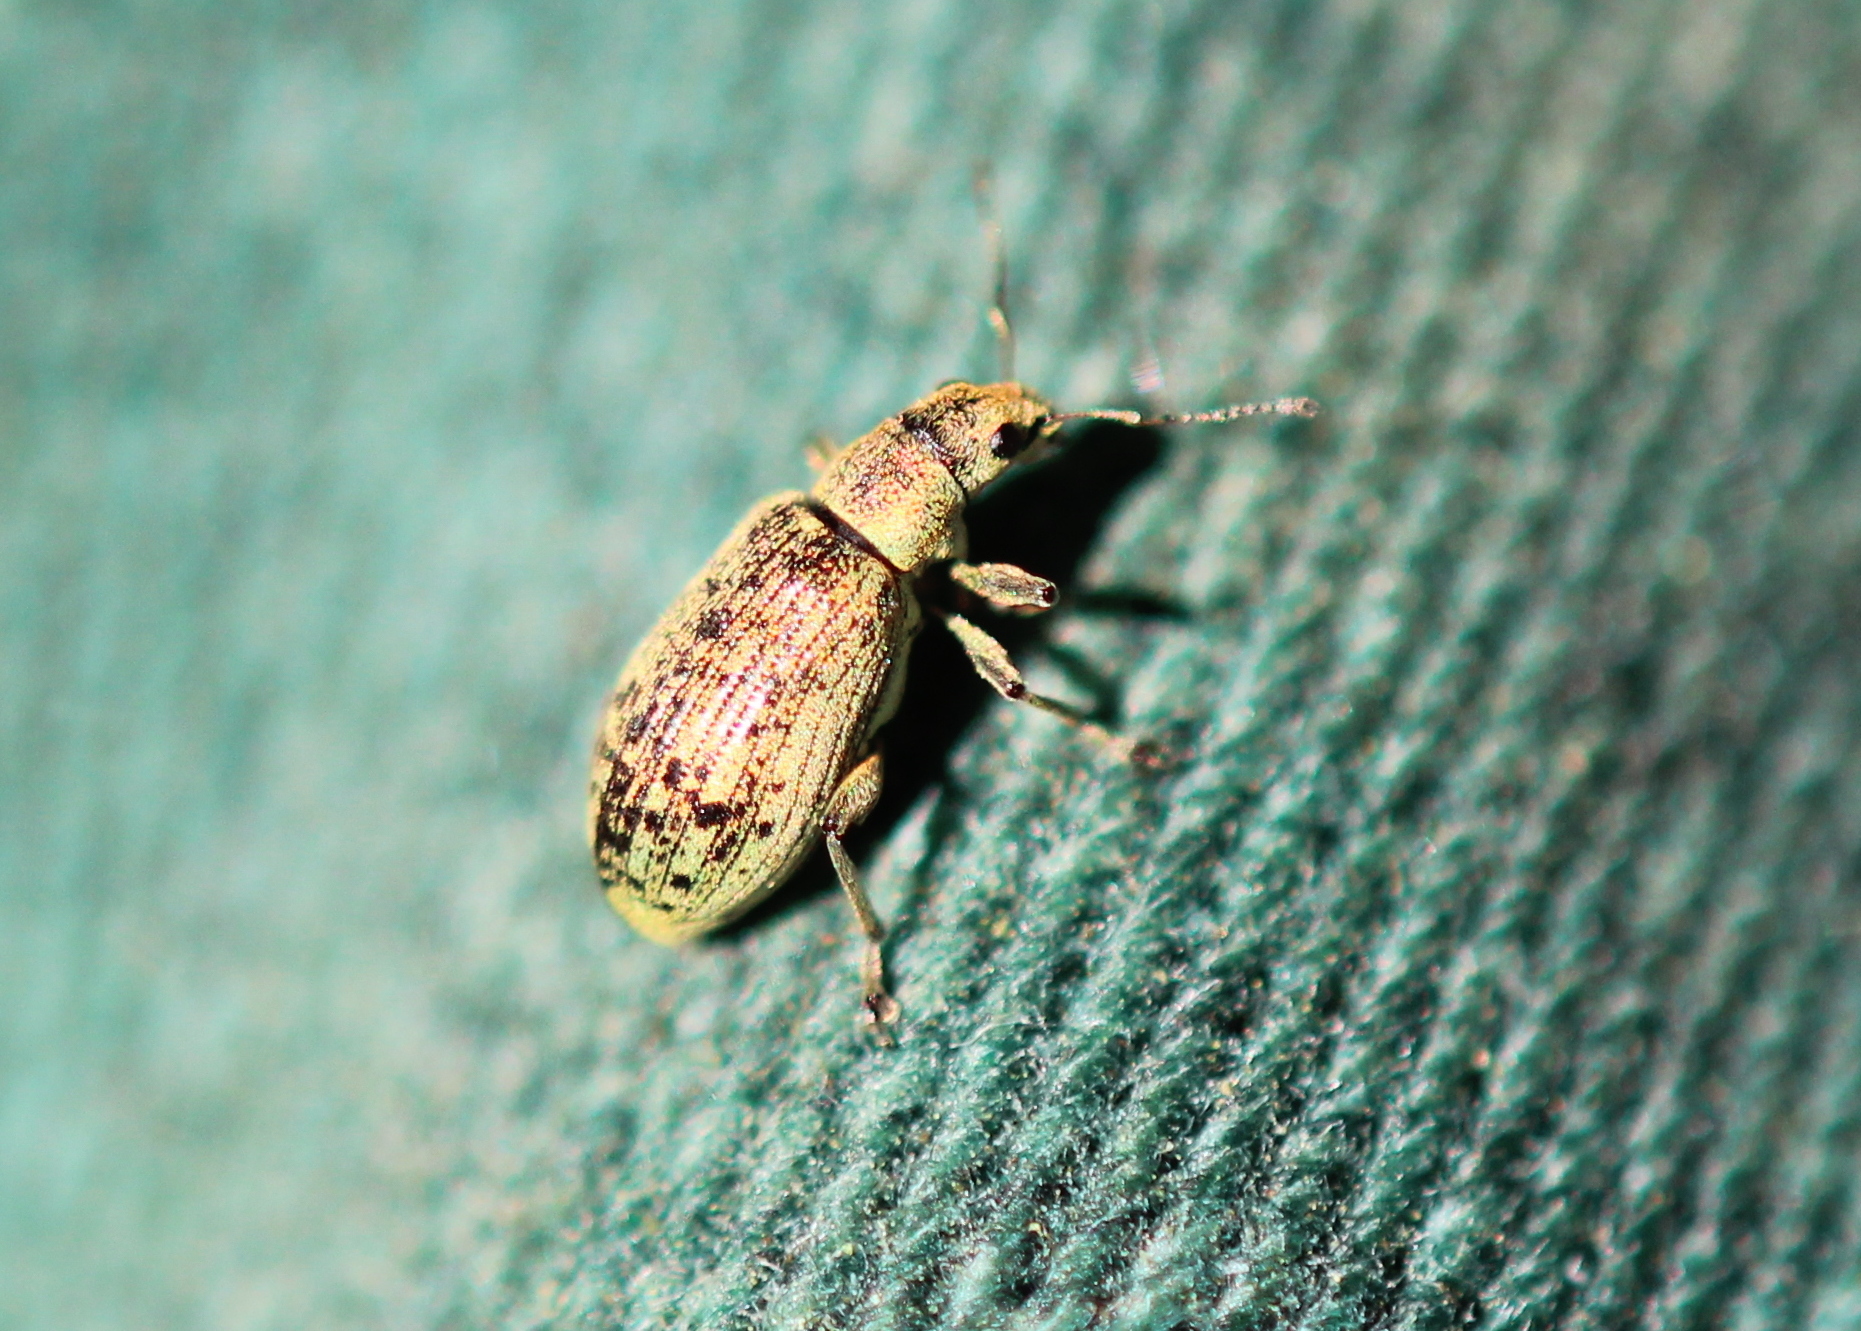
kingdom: Animalia
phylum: Arthropoda
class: Insecta
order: Coleoptera
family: Curculionidae
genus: Polydrusus
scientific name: Polydrusus cervinus
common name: Weevil
